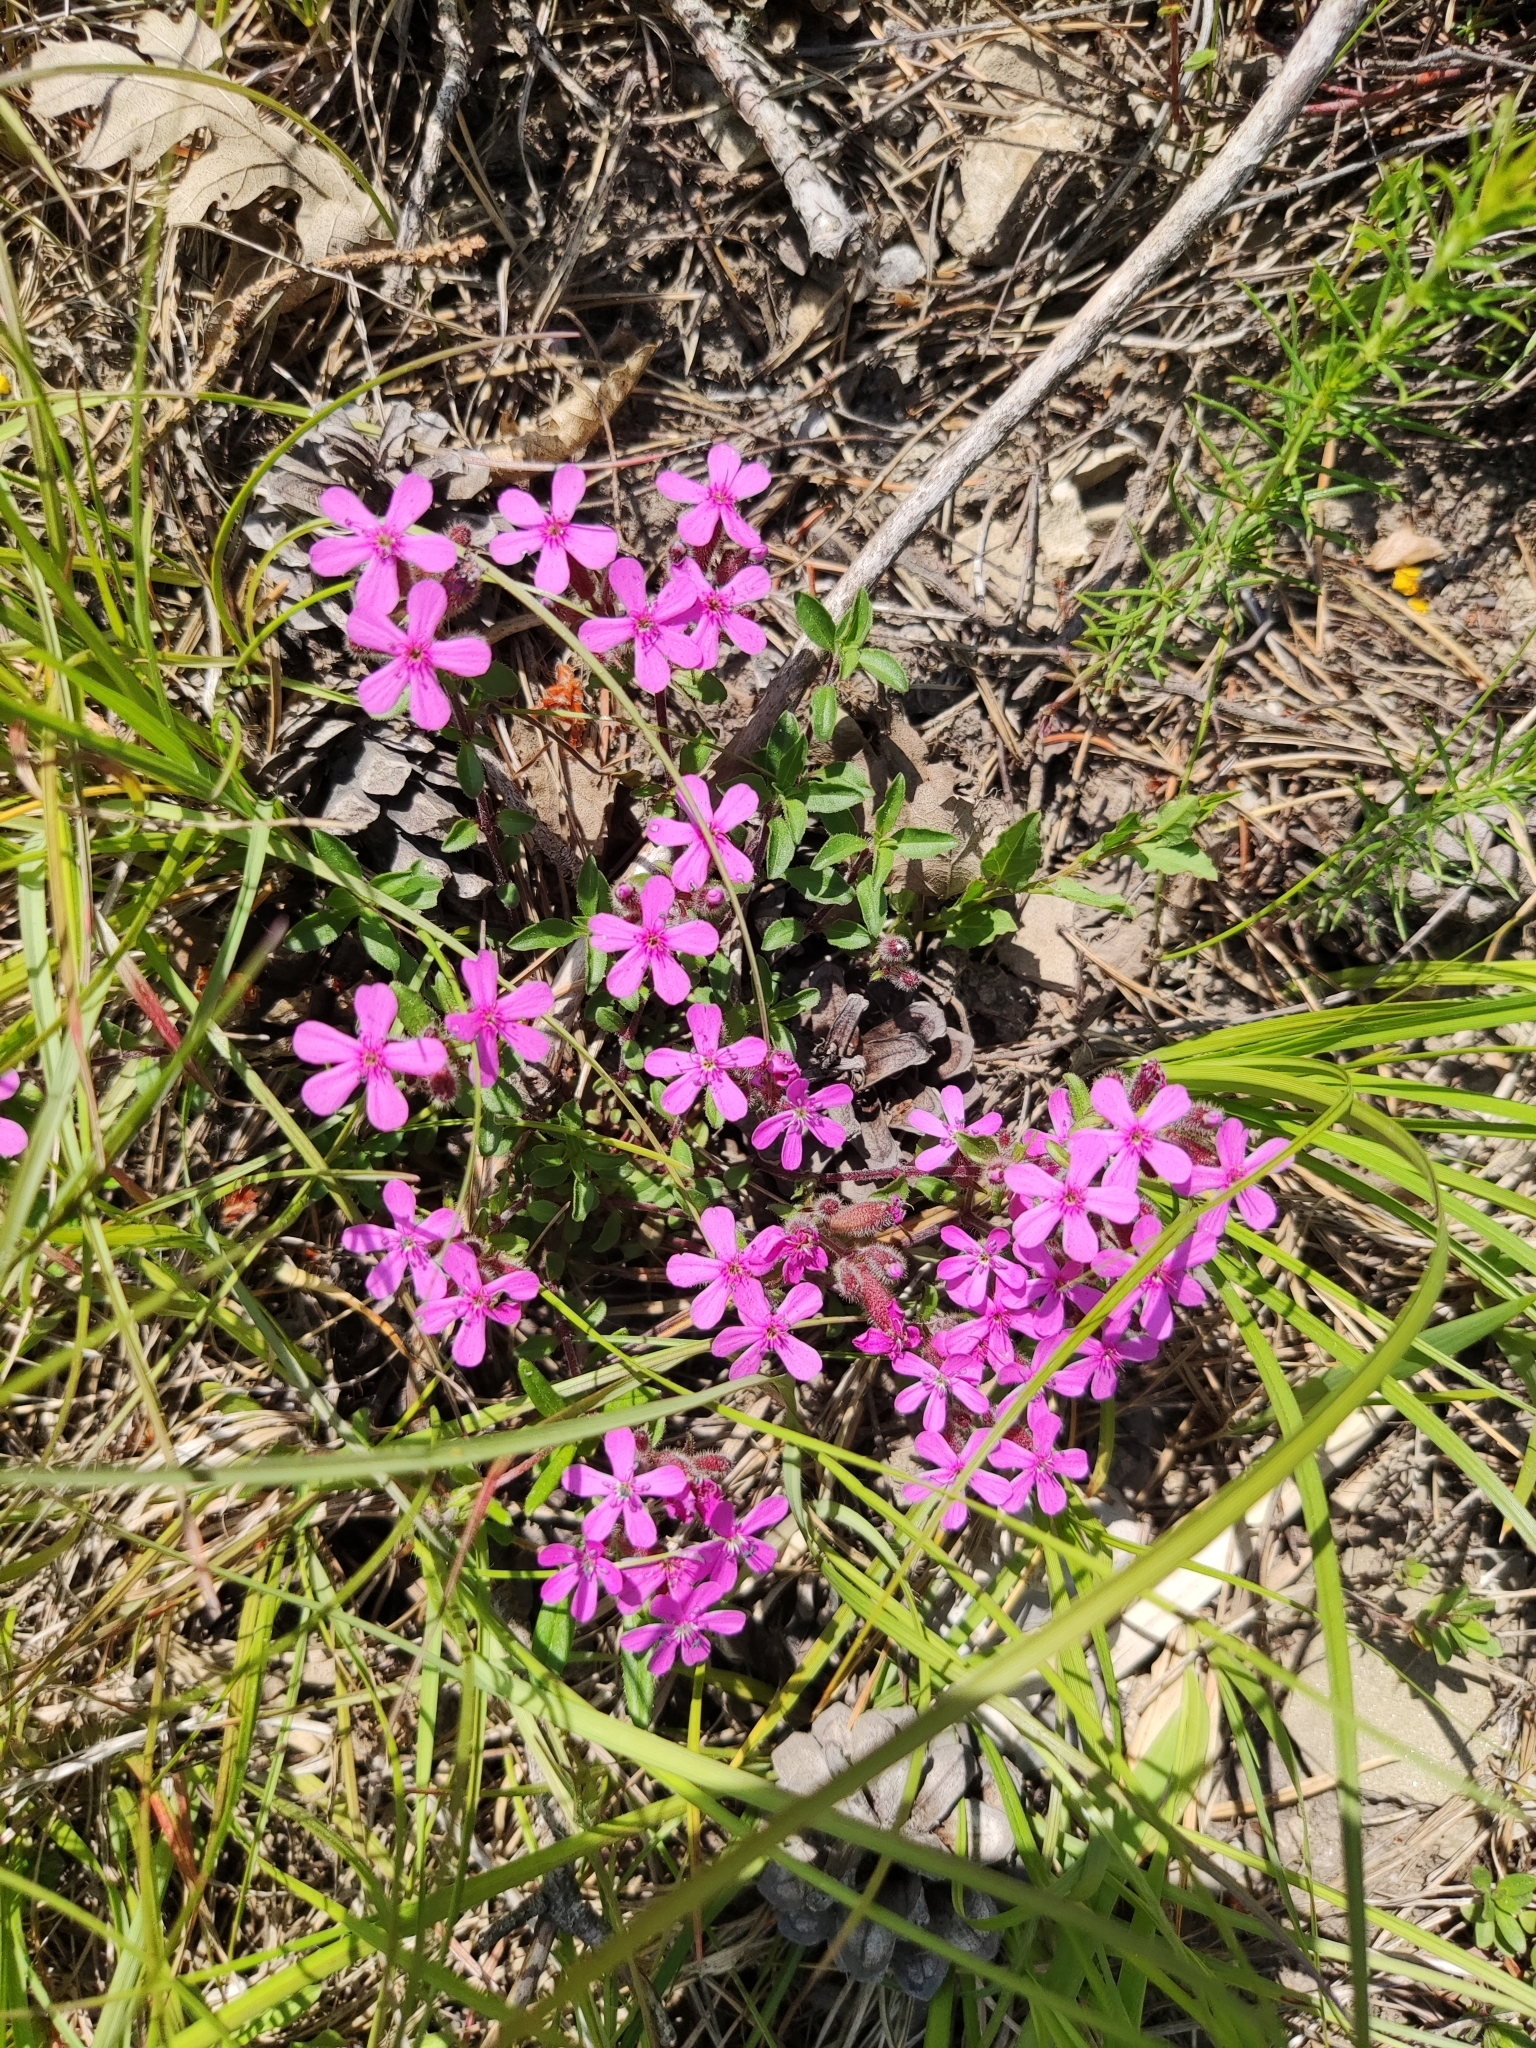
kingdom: Plantae
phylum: Tracheophyta
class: Magnoliopsida
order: Caryophyllales
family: Caryophyllaceae
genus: Saponaria
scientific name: Saponaria ocymoides
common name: Rock soapwort
